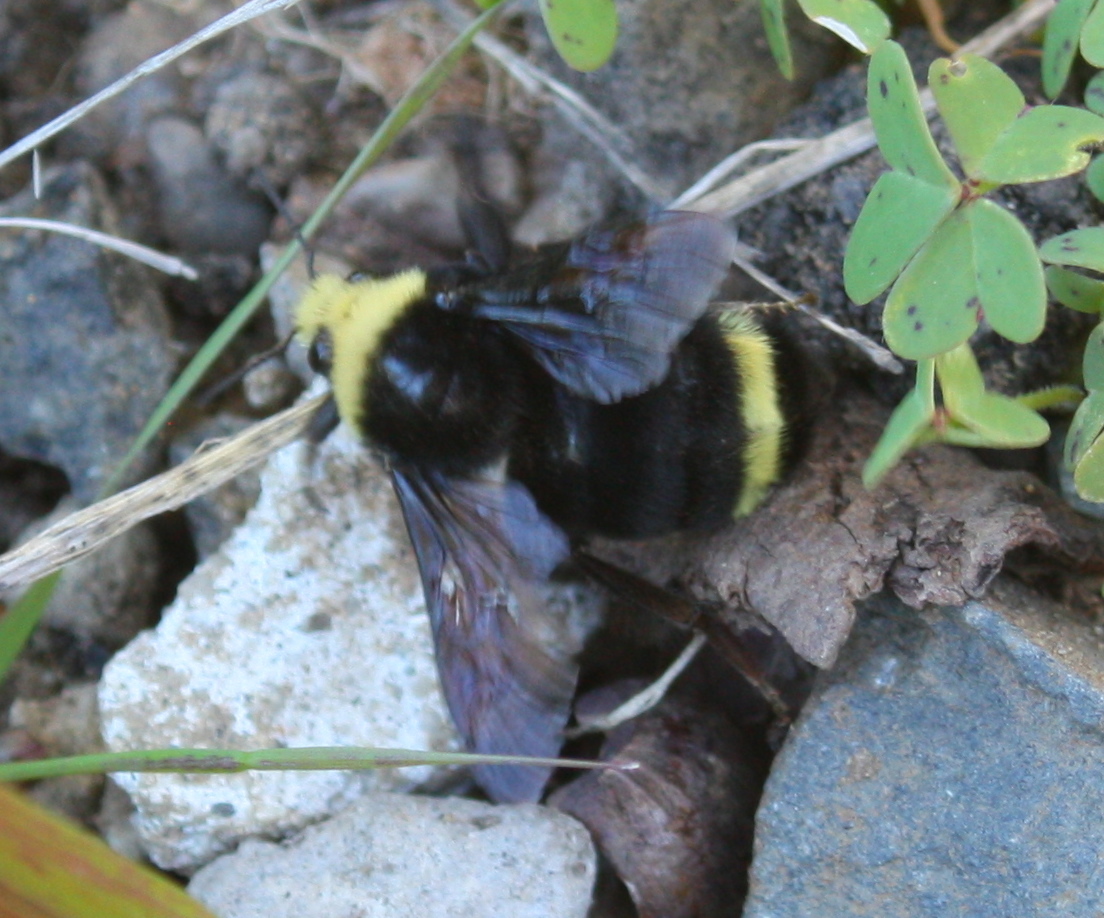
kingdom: Animalia
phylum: Arthropoda
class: Insecta
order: Hymenoptera
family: Apidae
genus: Pyrobombus
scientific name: Pyrobombus
